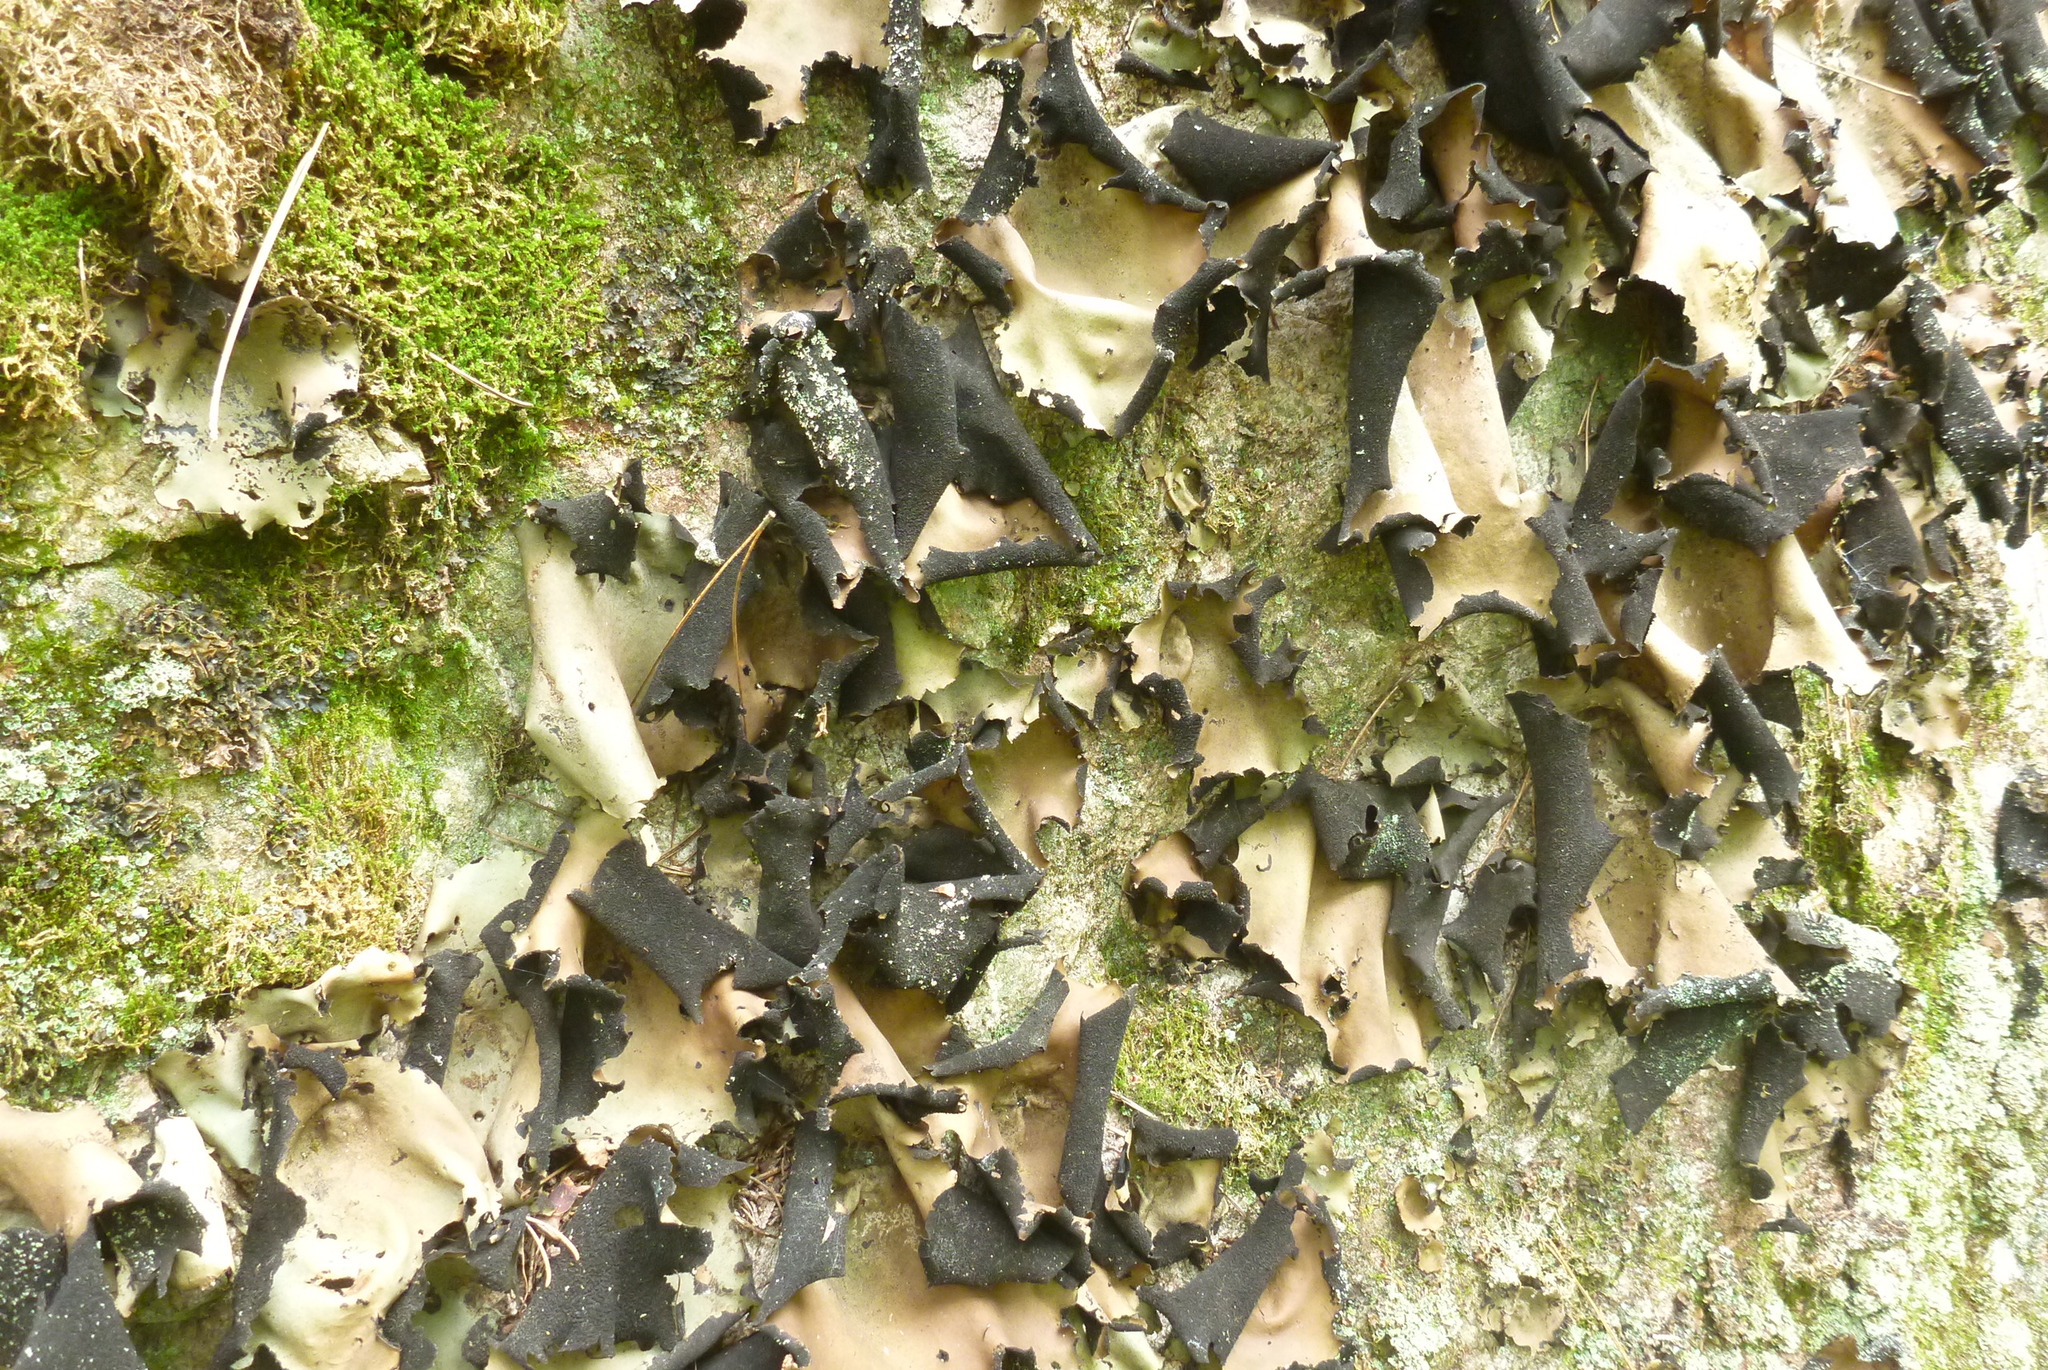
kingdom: Fungi
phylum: Ascomycota
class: Lecanoromycetes
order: Umbilicariales
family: Umbilicariaceae
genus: Umbilicaria
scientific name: Umbilicaria mammulata
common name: Smooth rock tripe
